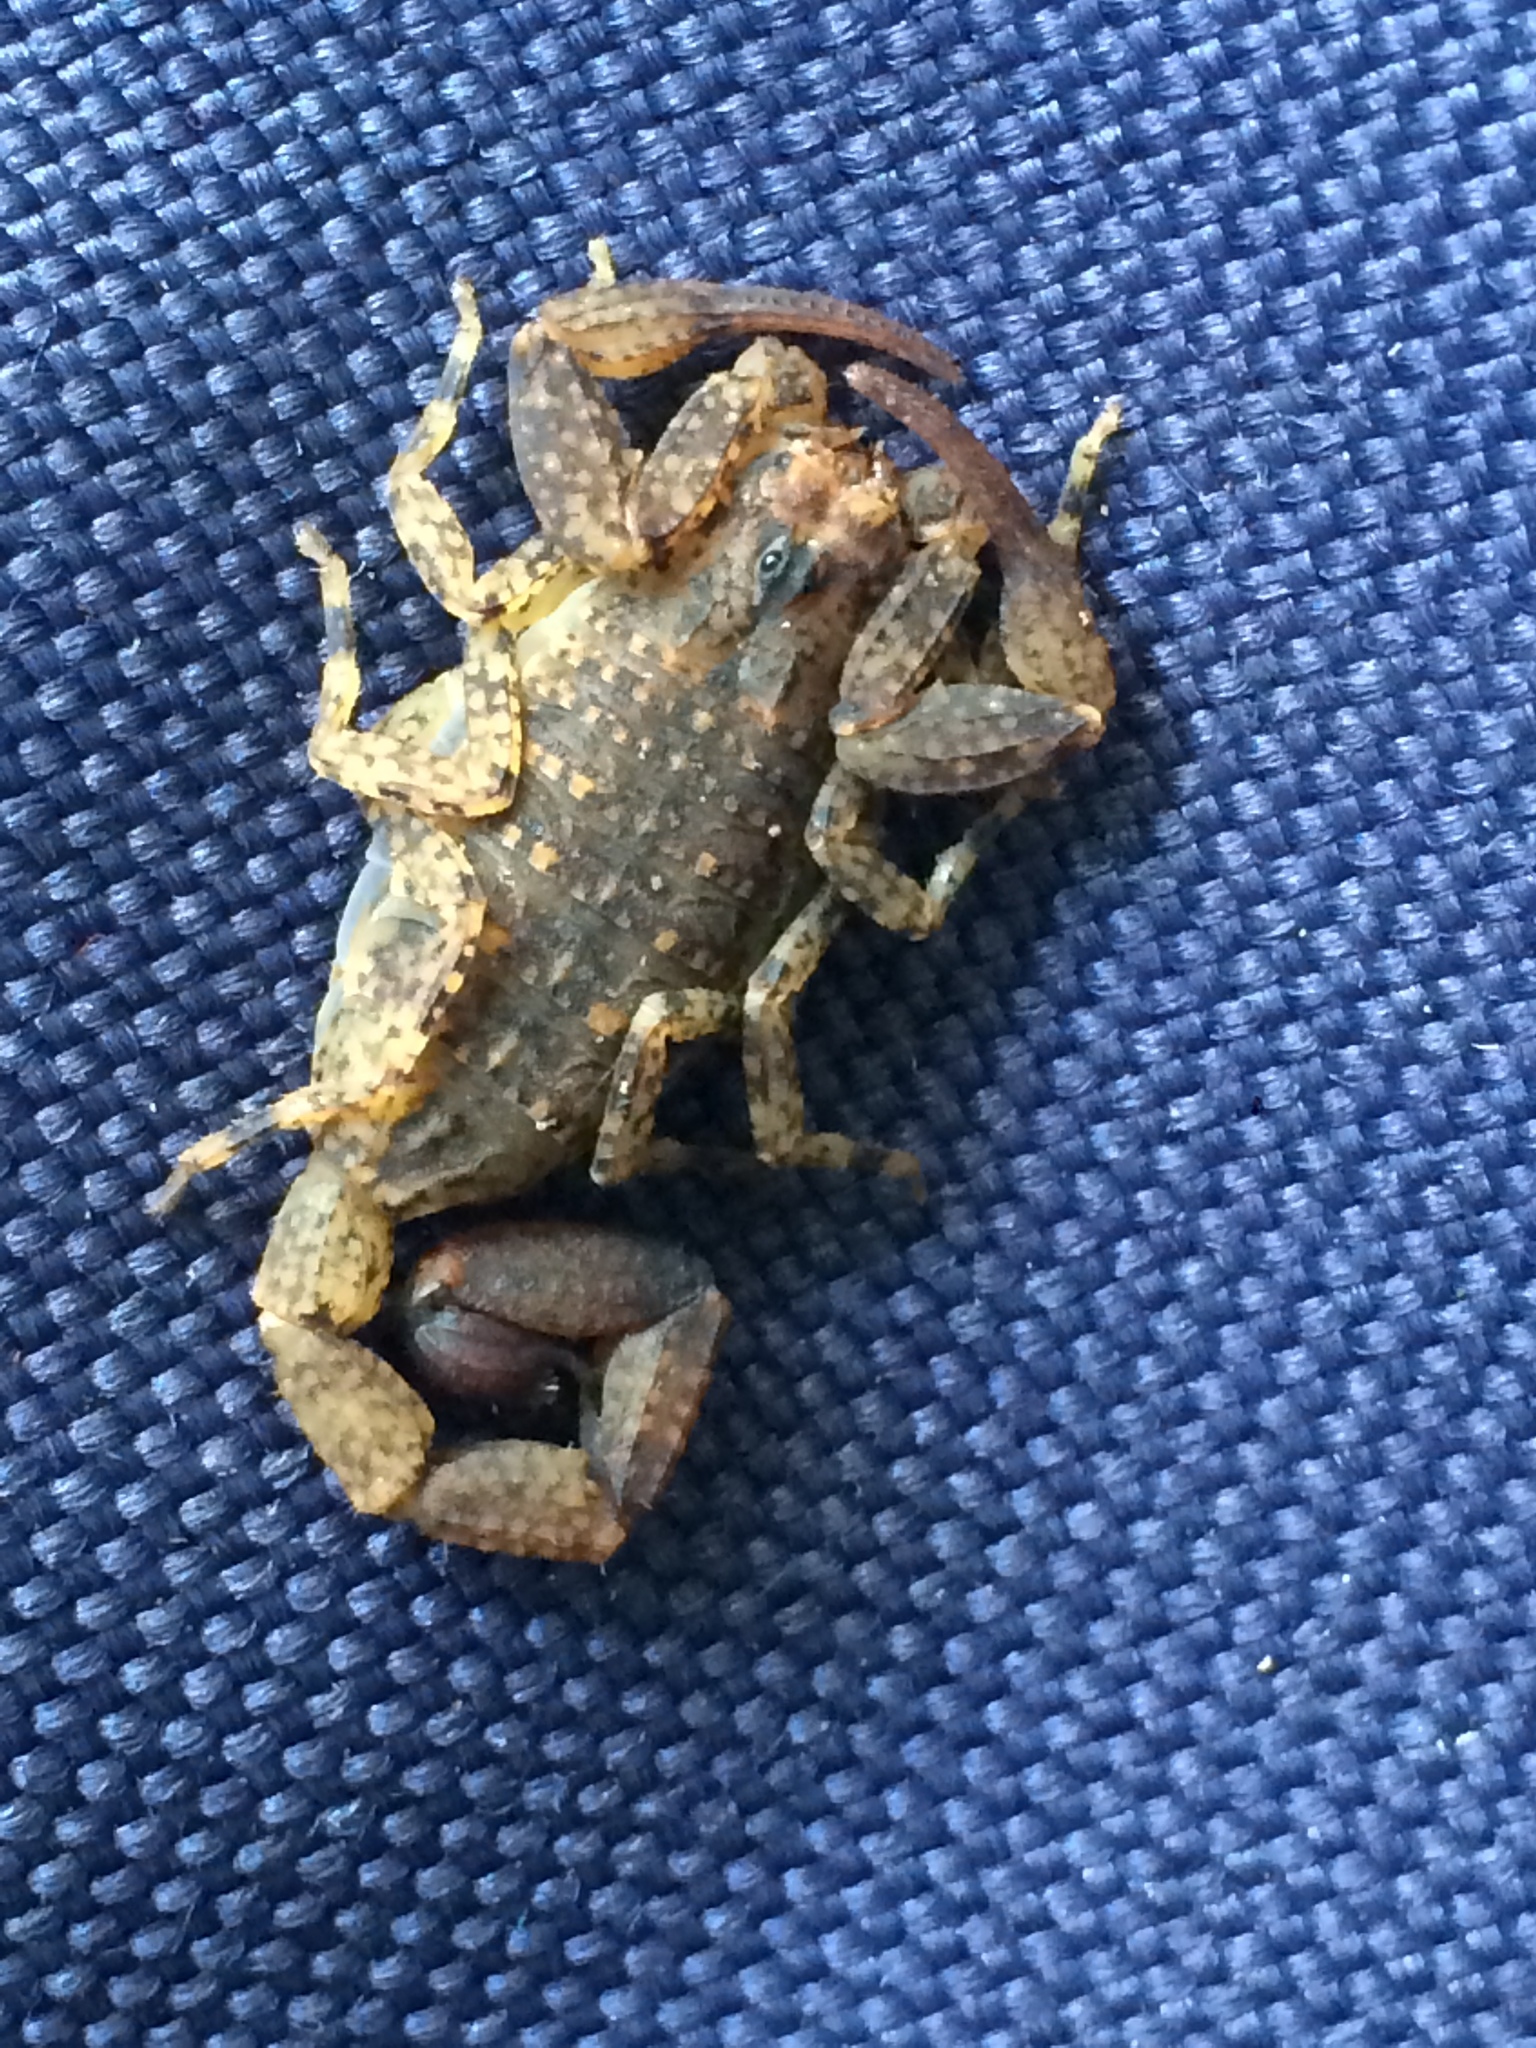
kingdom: Animalia
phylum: Arthropoda
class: Arachnida
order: Scorpiones
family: Buthidae
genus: Tityus
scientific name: Tityus pusillus
